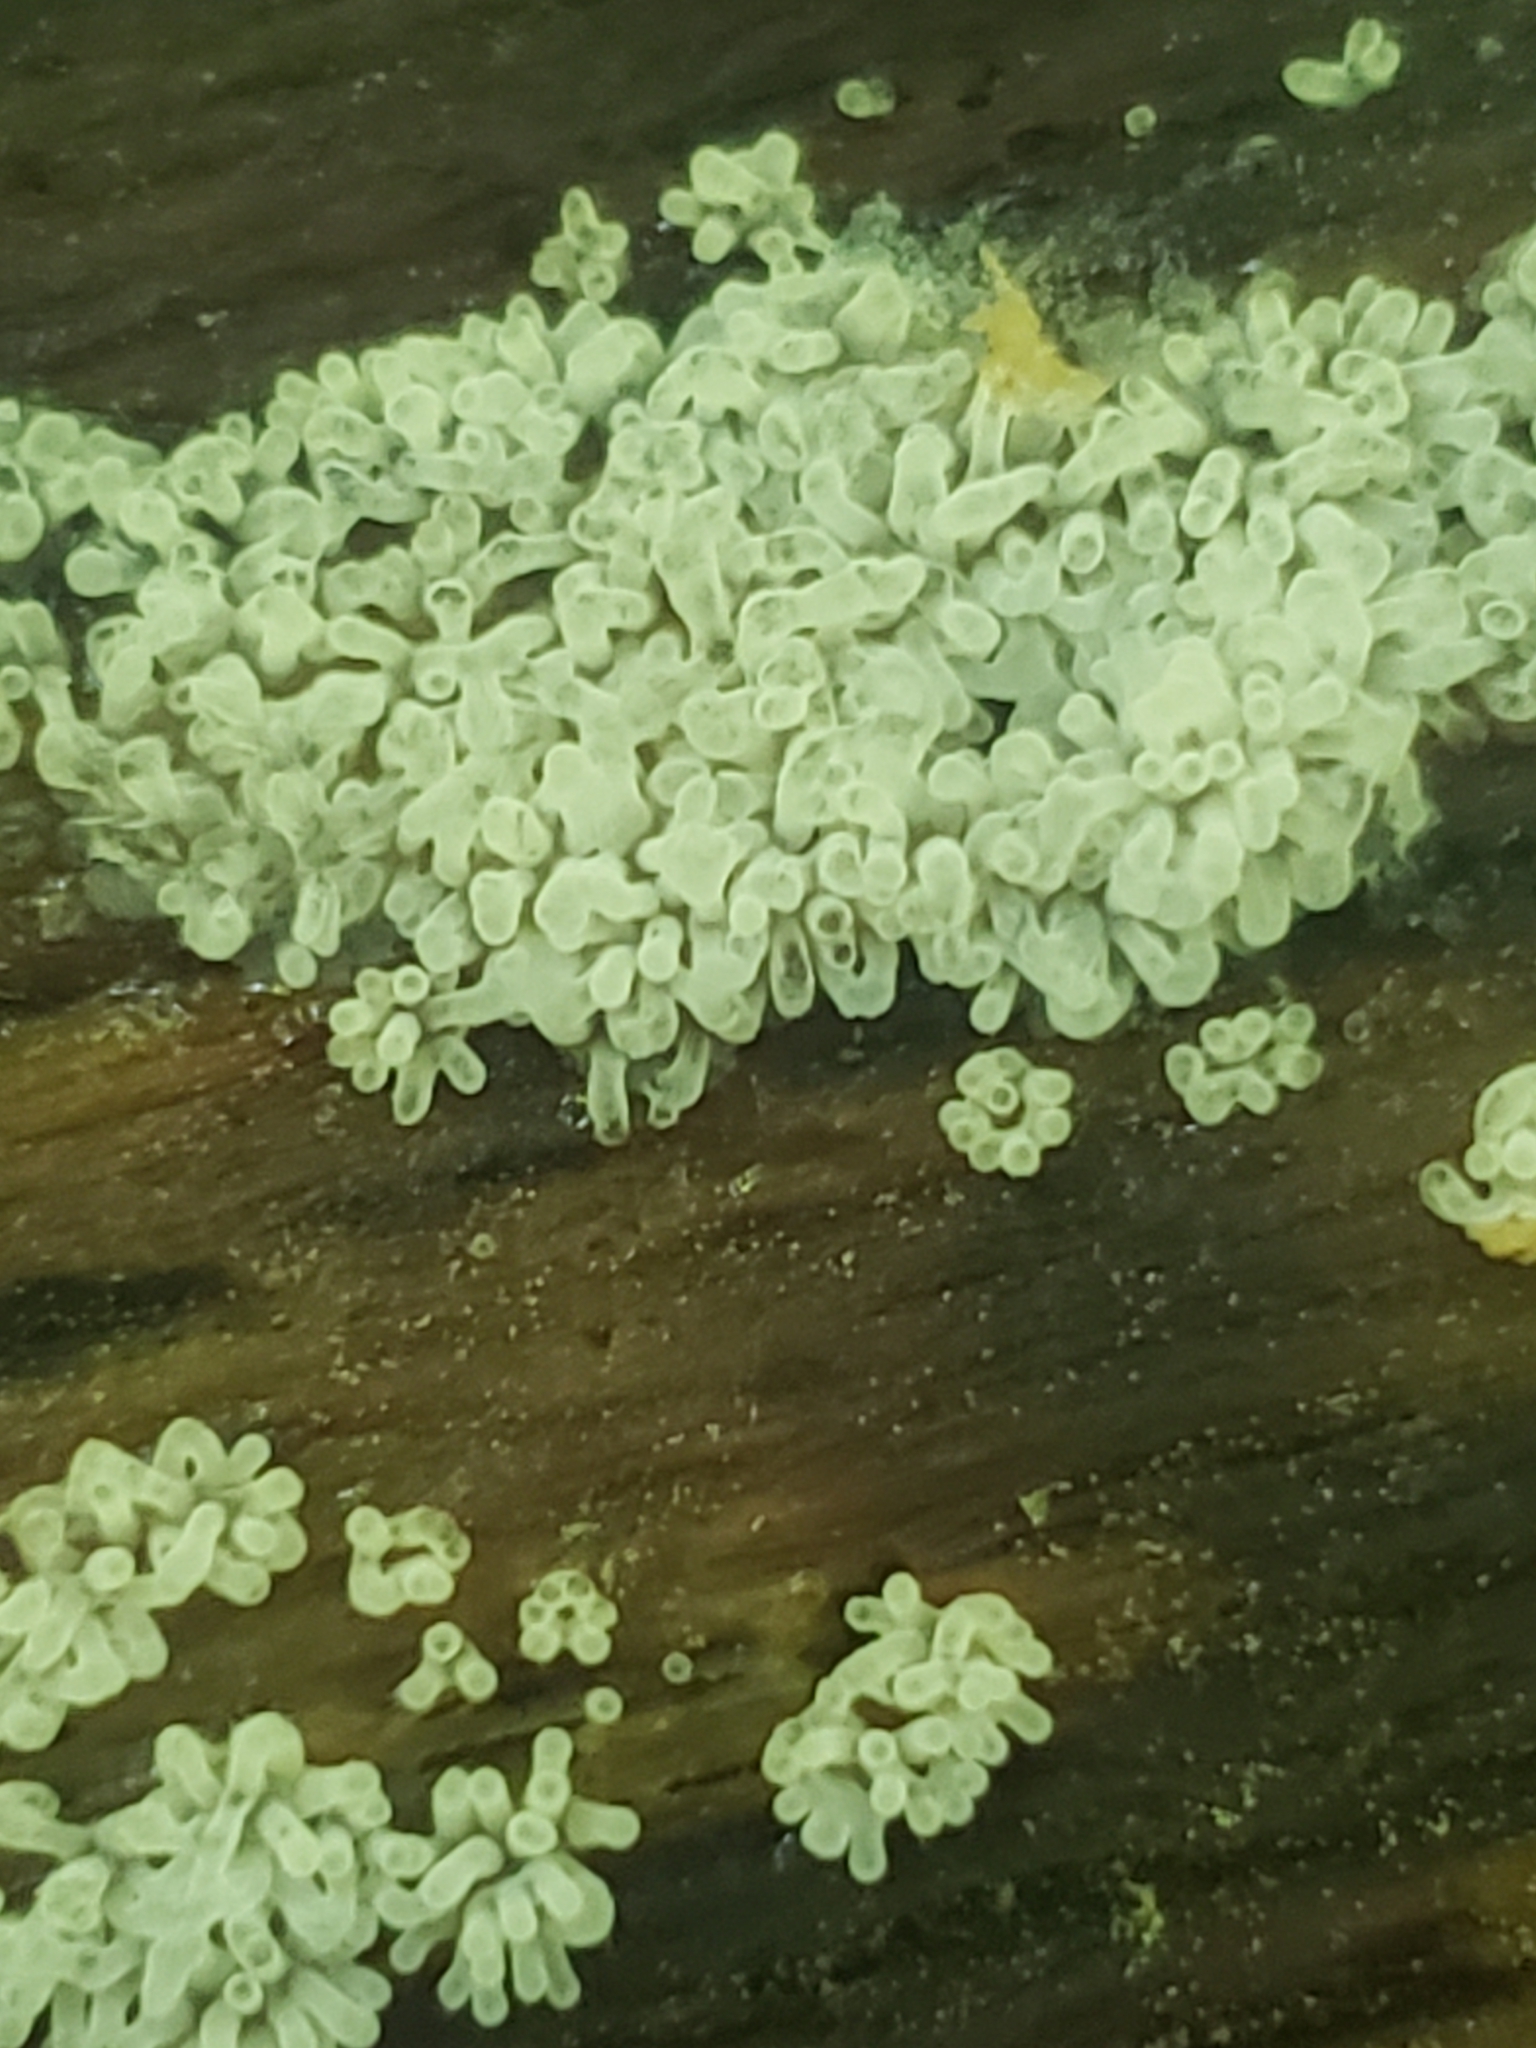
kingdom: Protozoa
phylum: Mycetozoa
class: Protosteliomycetes
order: Ceratiomyxales
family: Ceratiomyxaceae
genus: Ceratiomyxa
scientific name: Ceratiomyxa fruticulosa
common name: Honeycomb coral slime mold
